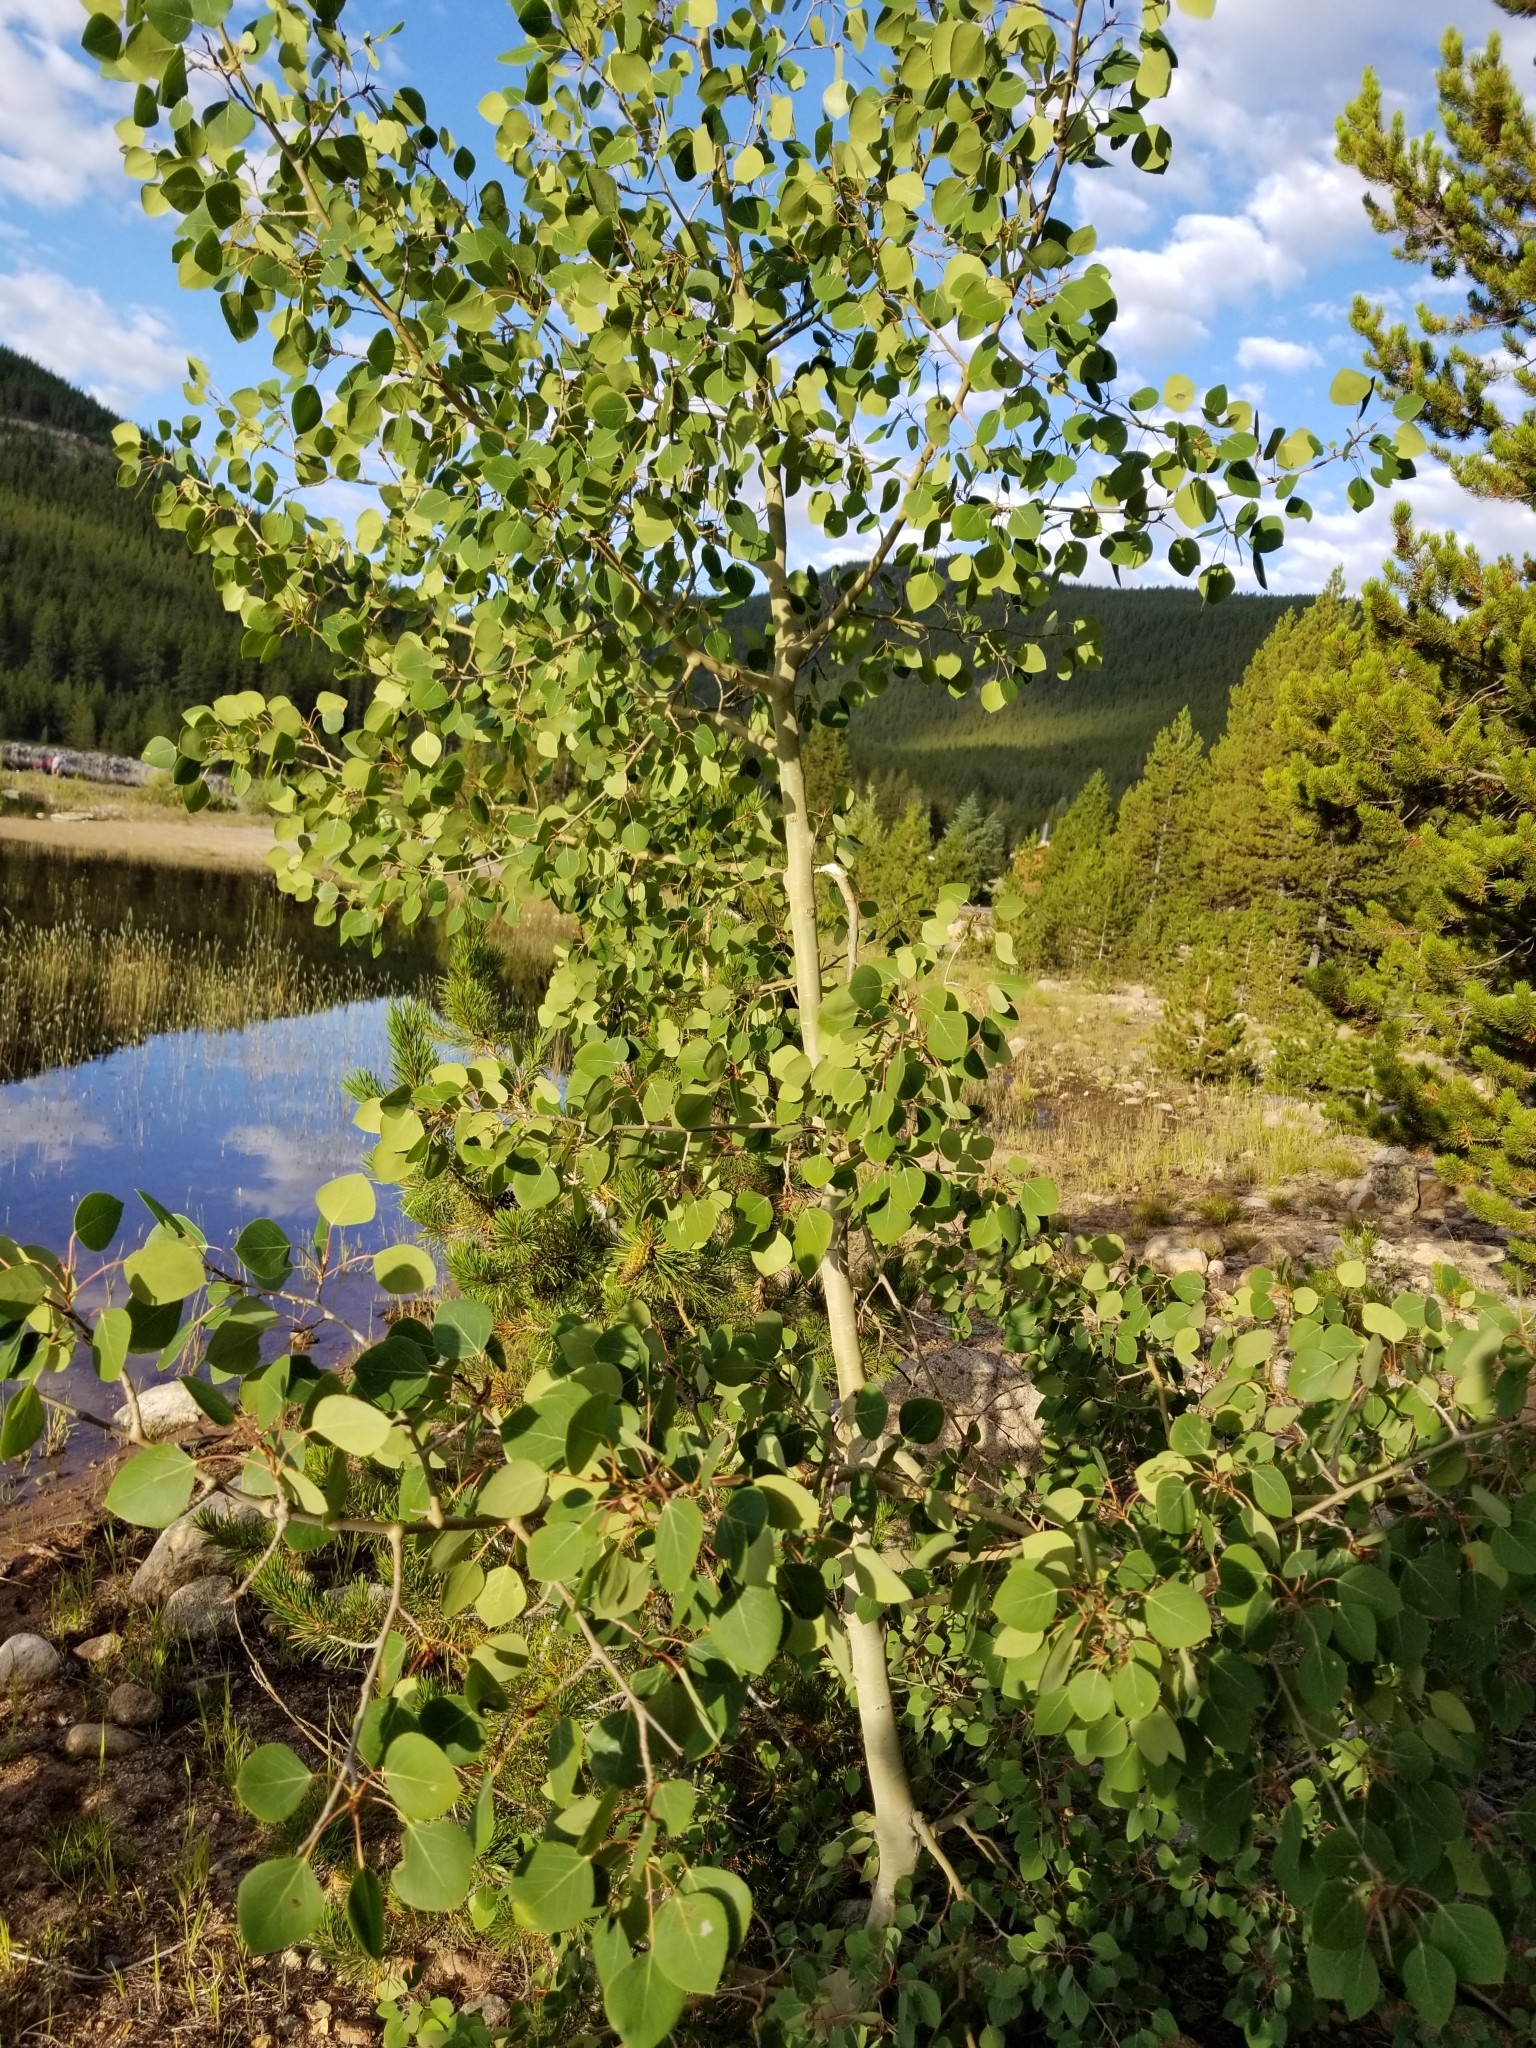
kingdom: Plantae
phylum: Tracheophyta
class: Magnoliopsida
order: Malpighiales
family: Salicaceae
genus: Populus
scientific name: Populus tremuloides
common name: Quaking aspen
